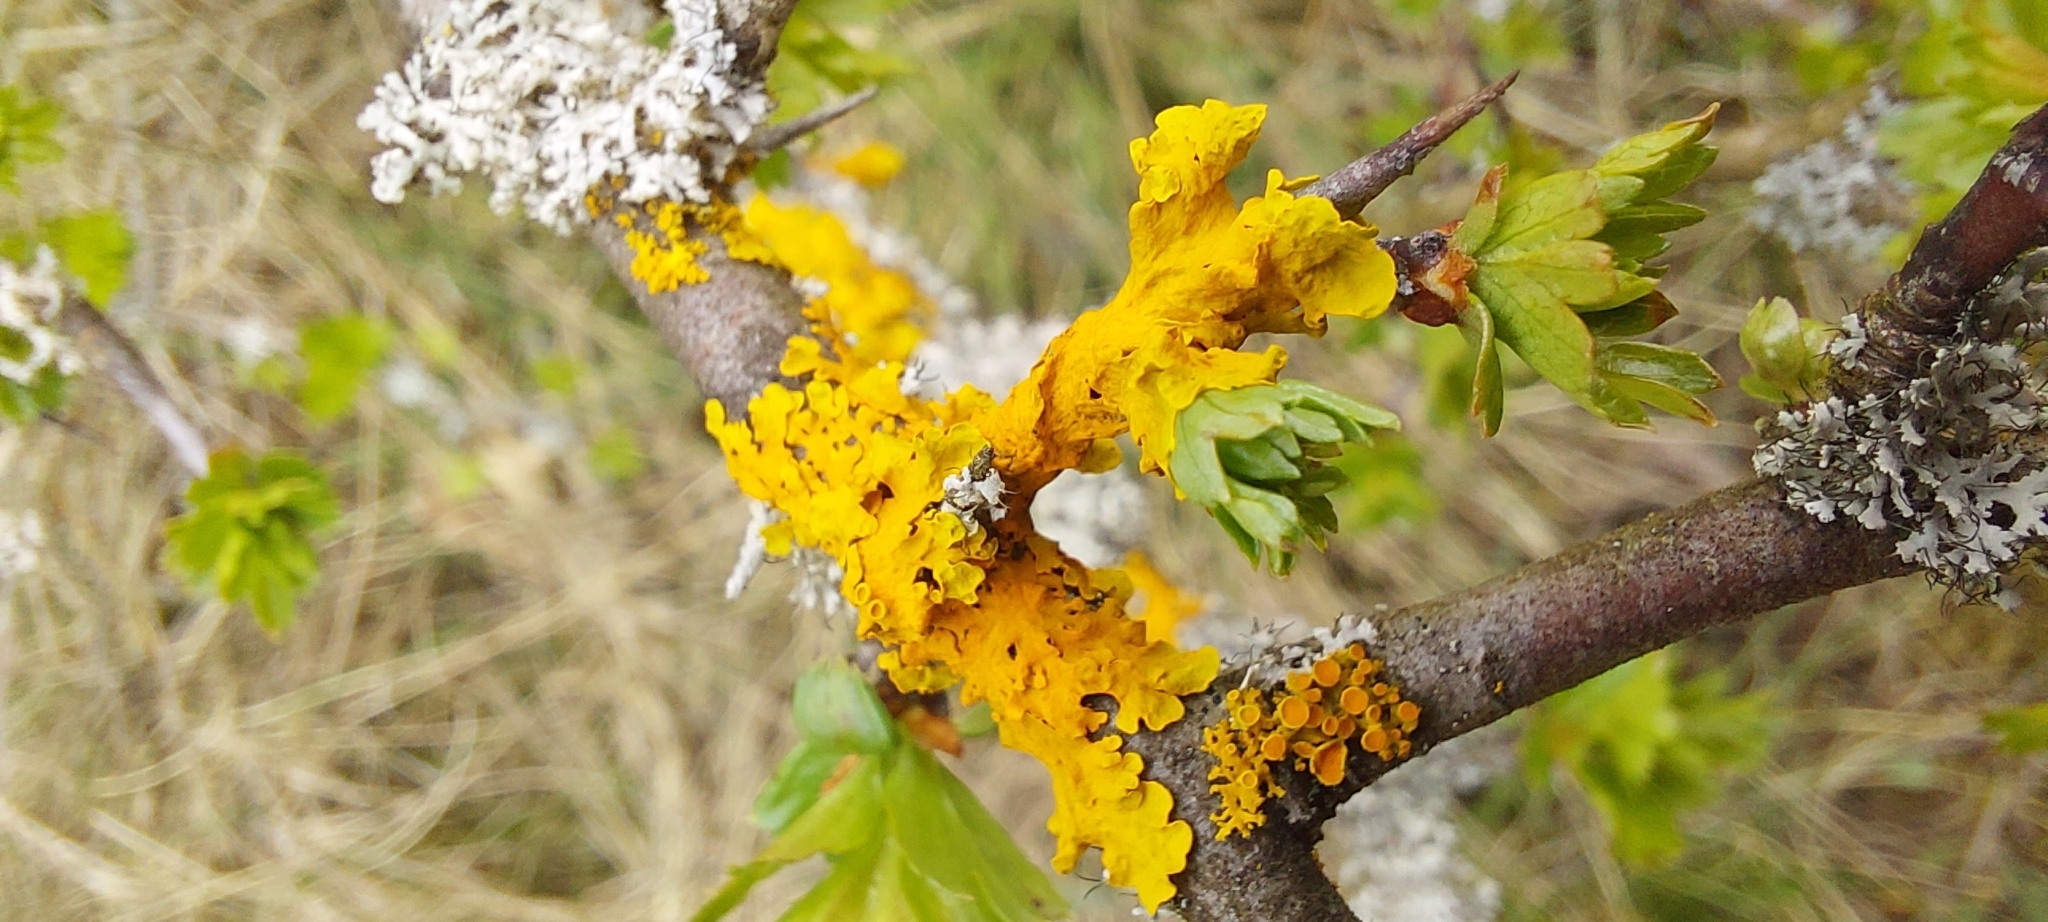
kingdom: Fungi
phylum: Ascomycota
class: Lecanoromycetes
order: Teloschistales
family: Teloschistaceae
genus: Xanthoria
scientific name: Xanthoria parietina
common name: Common orange lichen
